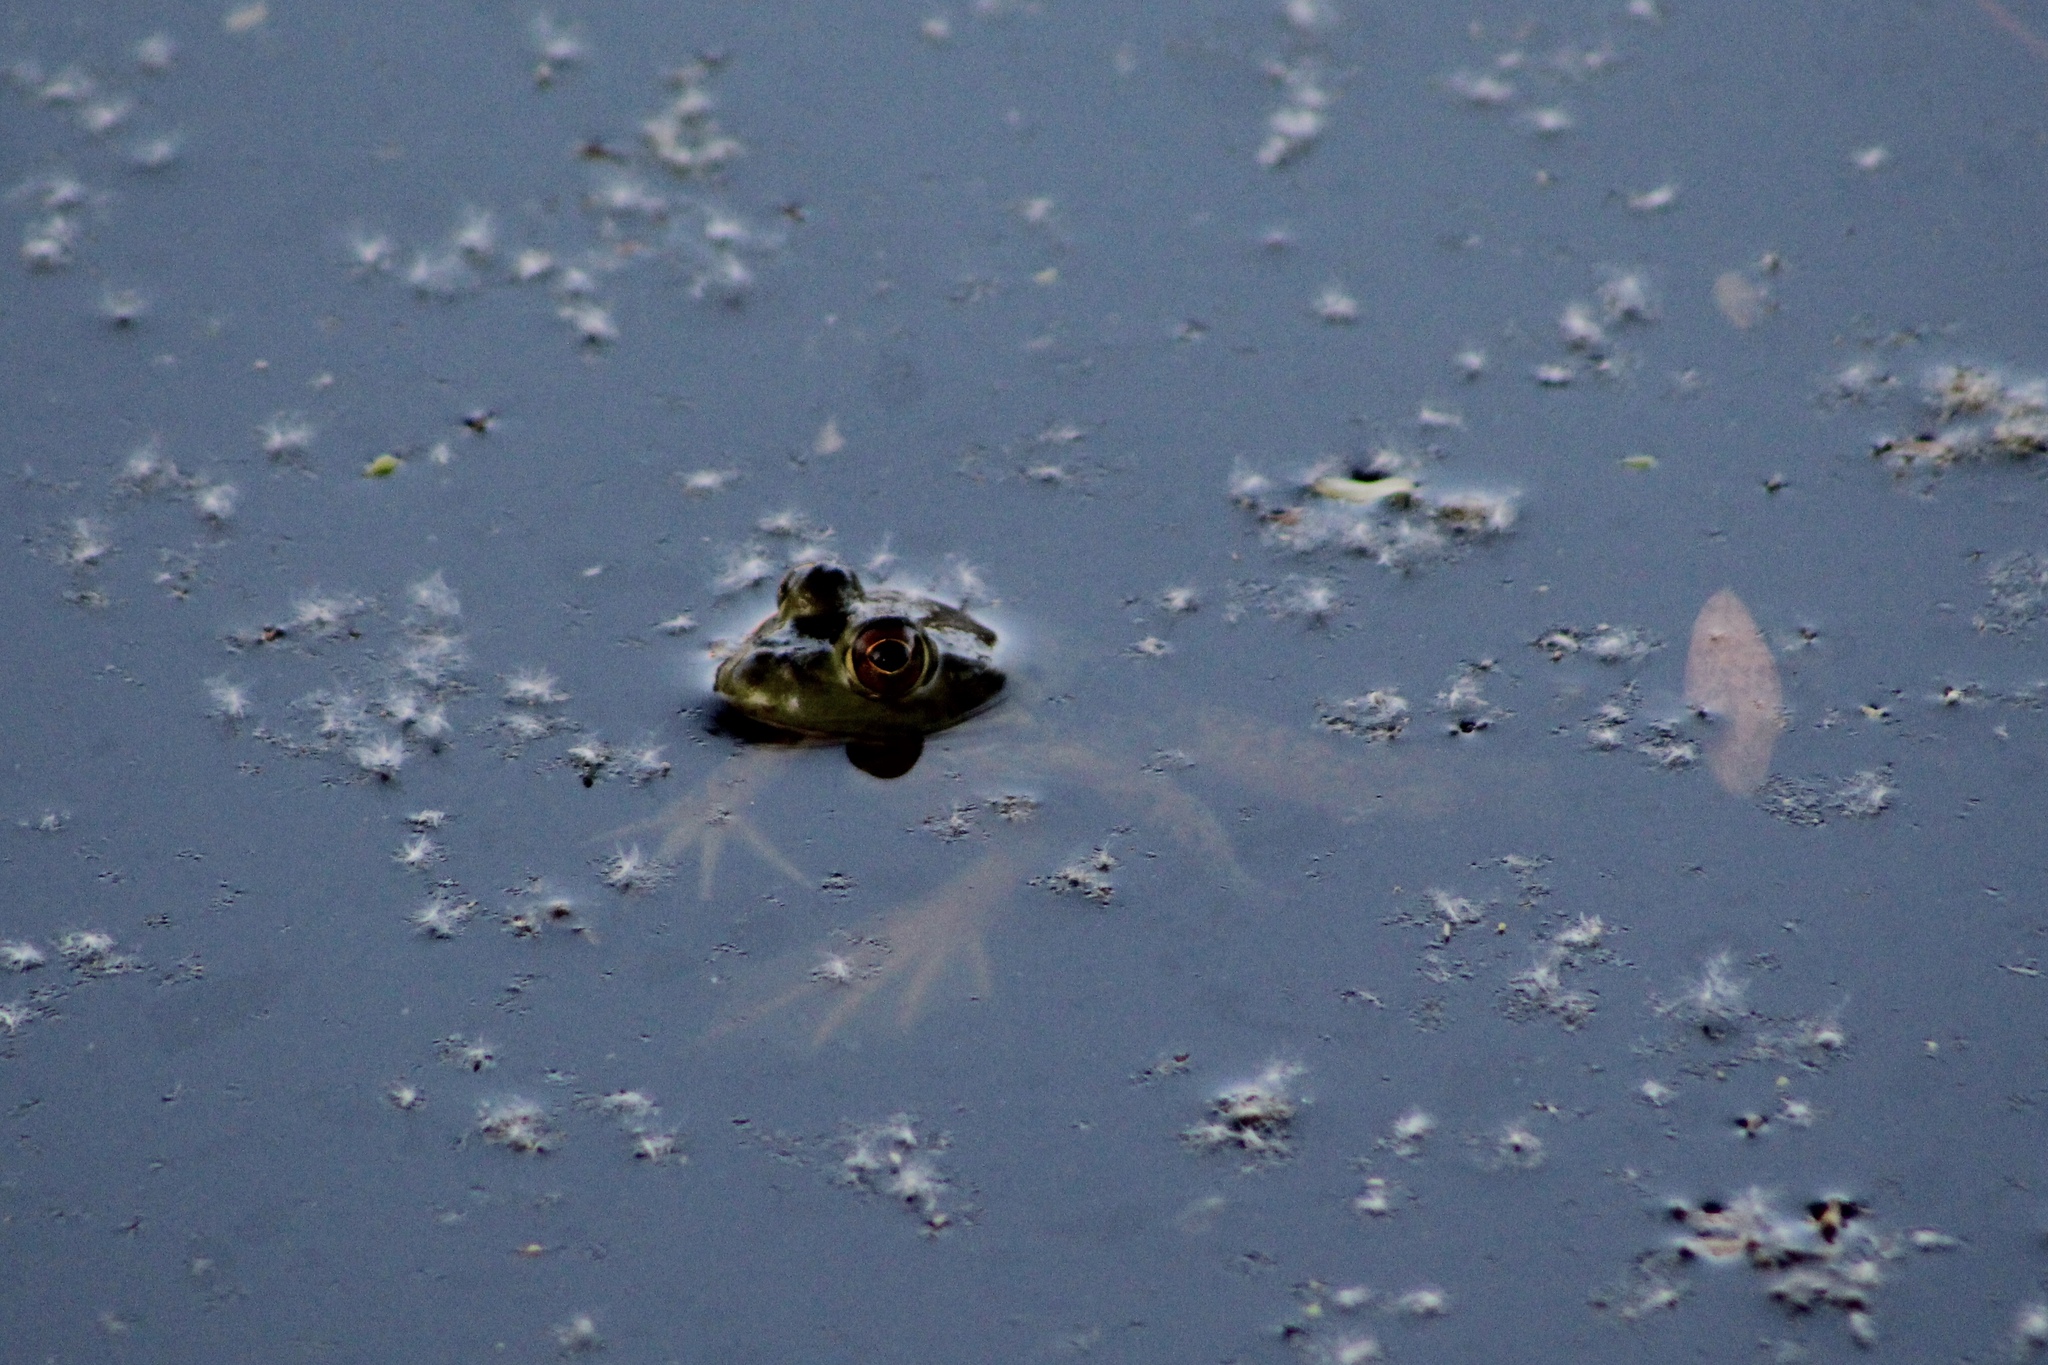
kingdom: Animalia
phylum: Chordata
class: Amphibia
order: Anura
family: Ranidae
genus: Lithobates
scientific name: Lithobates catesbeianus
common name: American bullfrog
